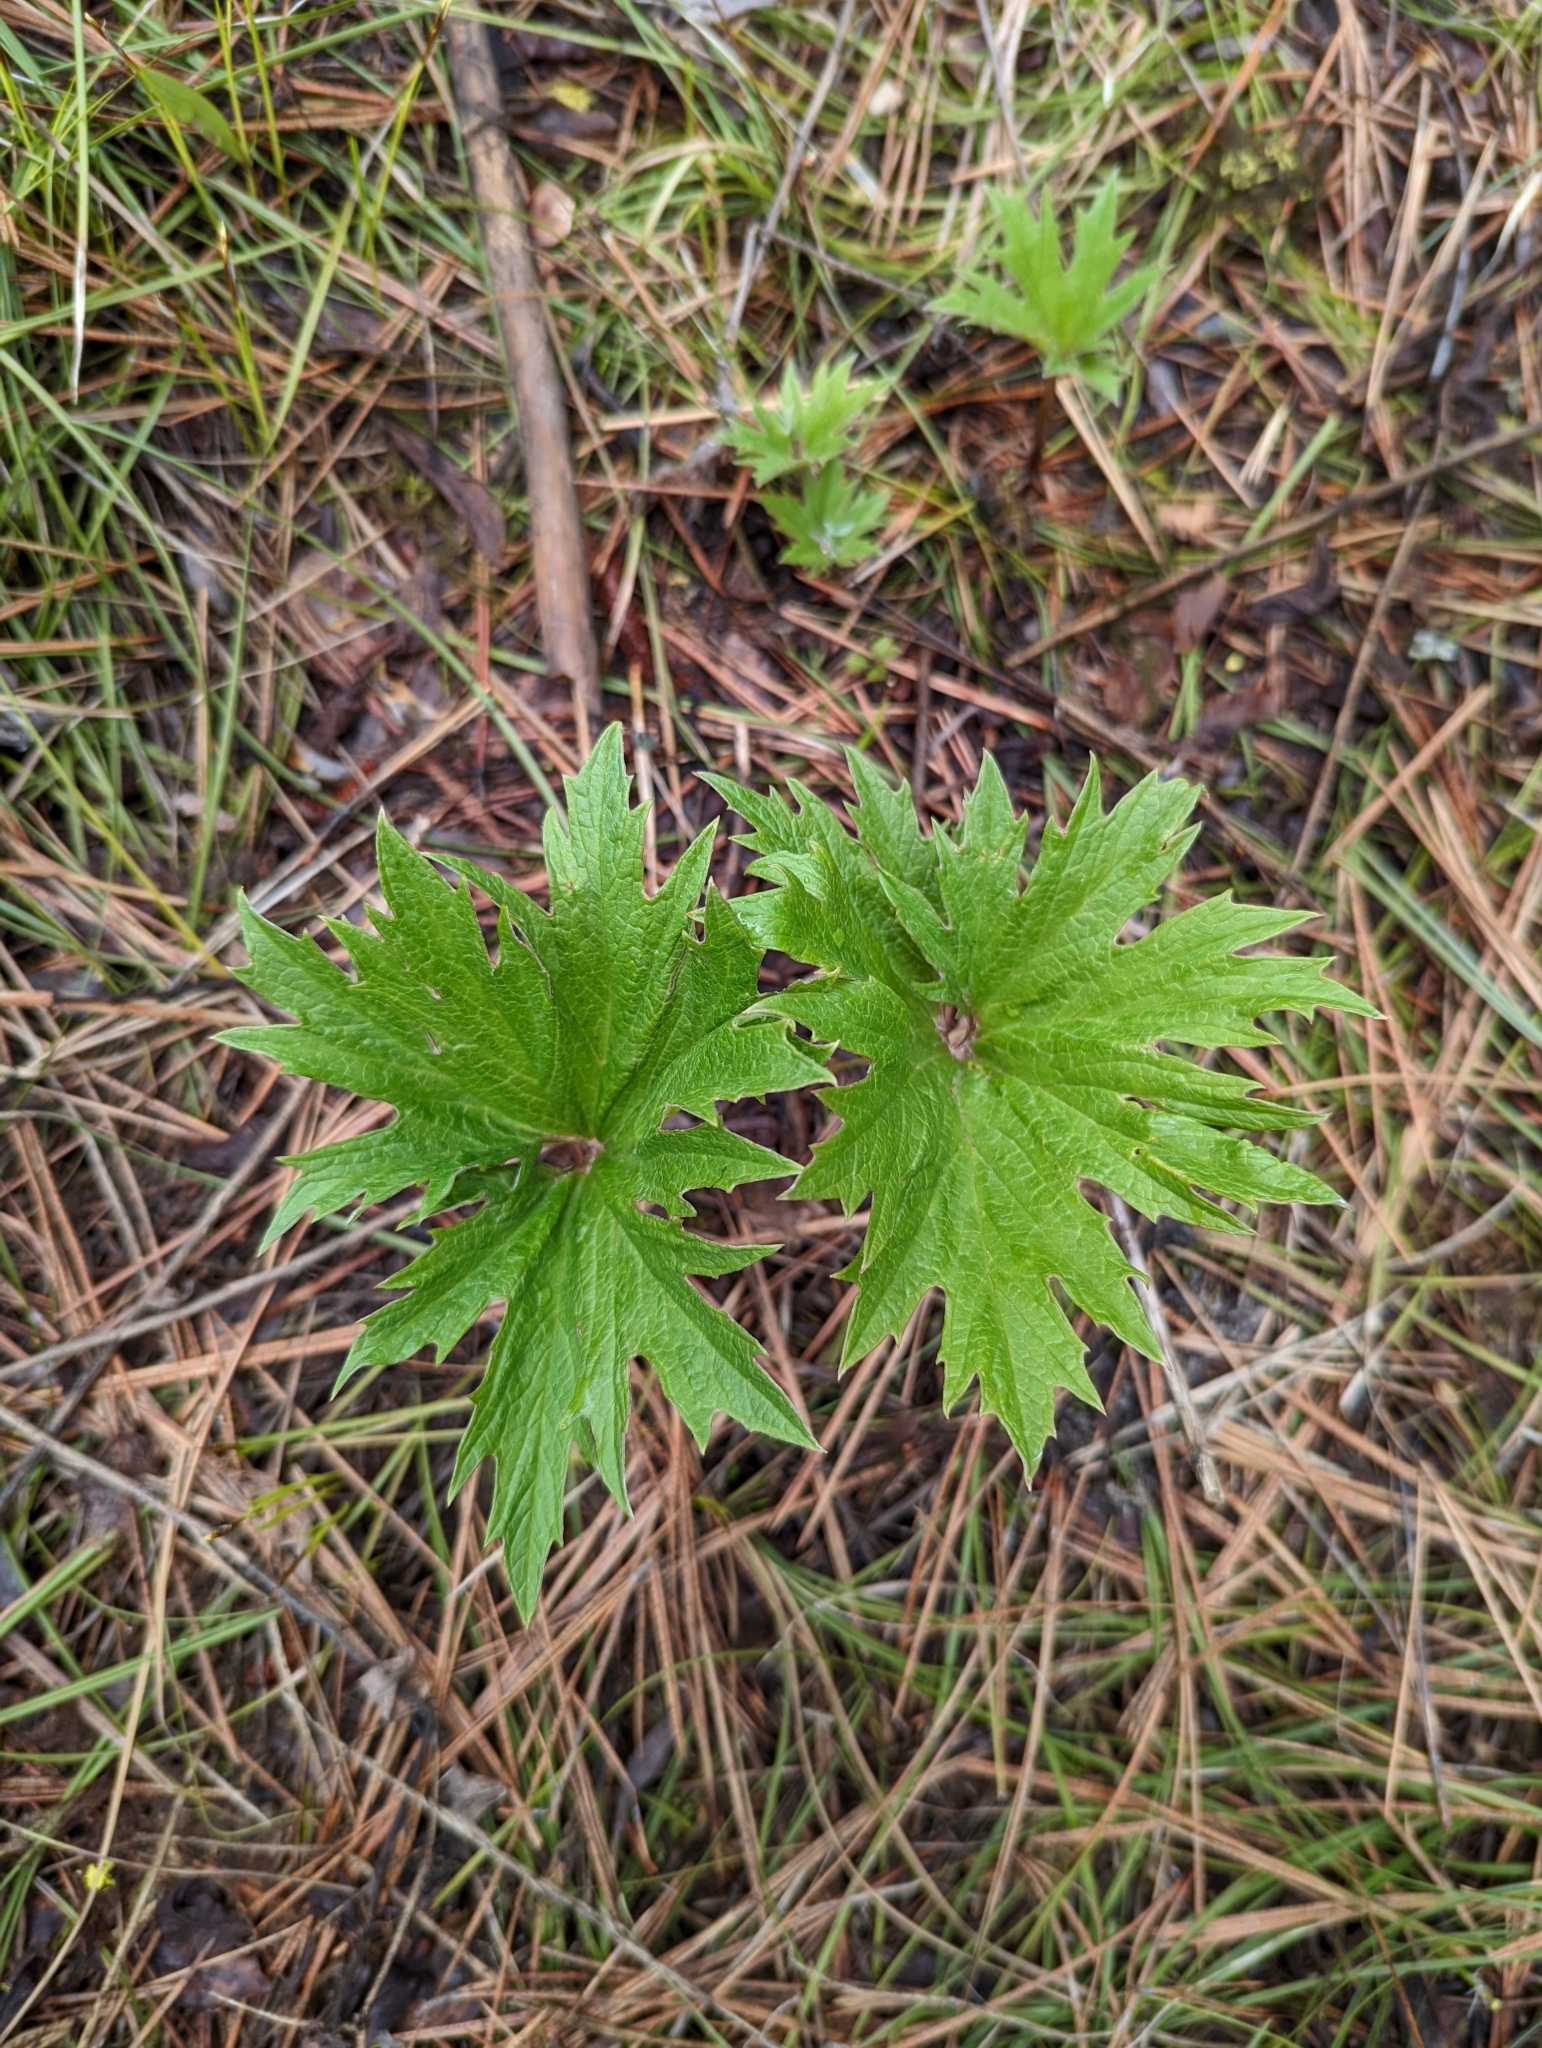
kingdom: Plantae
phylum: Tracheophyta
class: Magnoliopsida
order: Asterales
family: Asteraceae
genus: Cacaliopsis
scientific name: Cacaliopsis nardosmia
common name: Silvercrown
